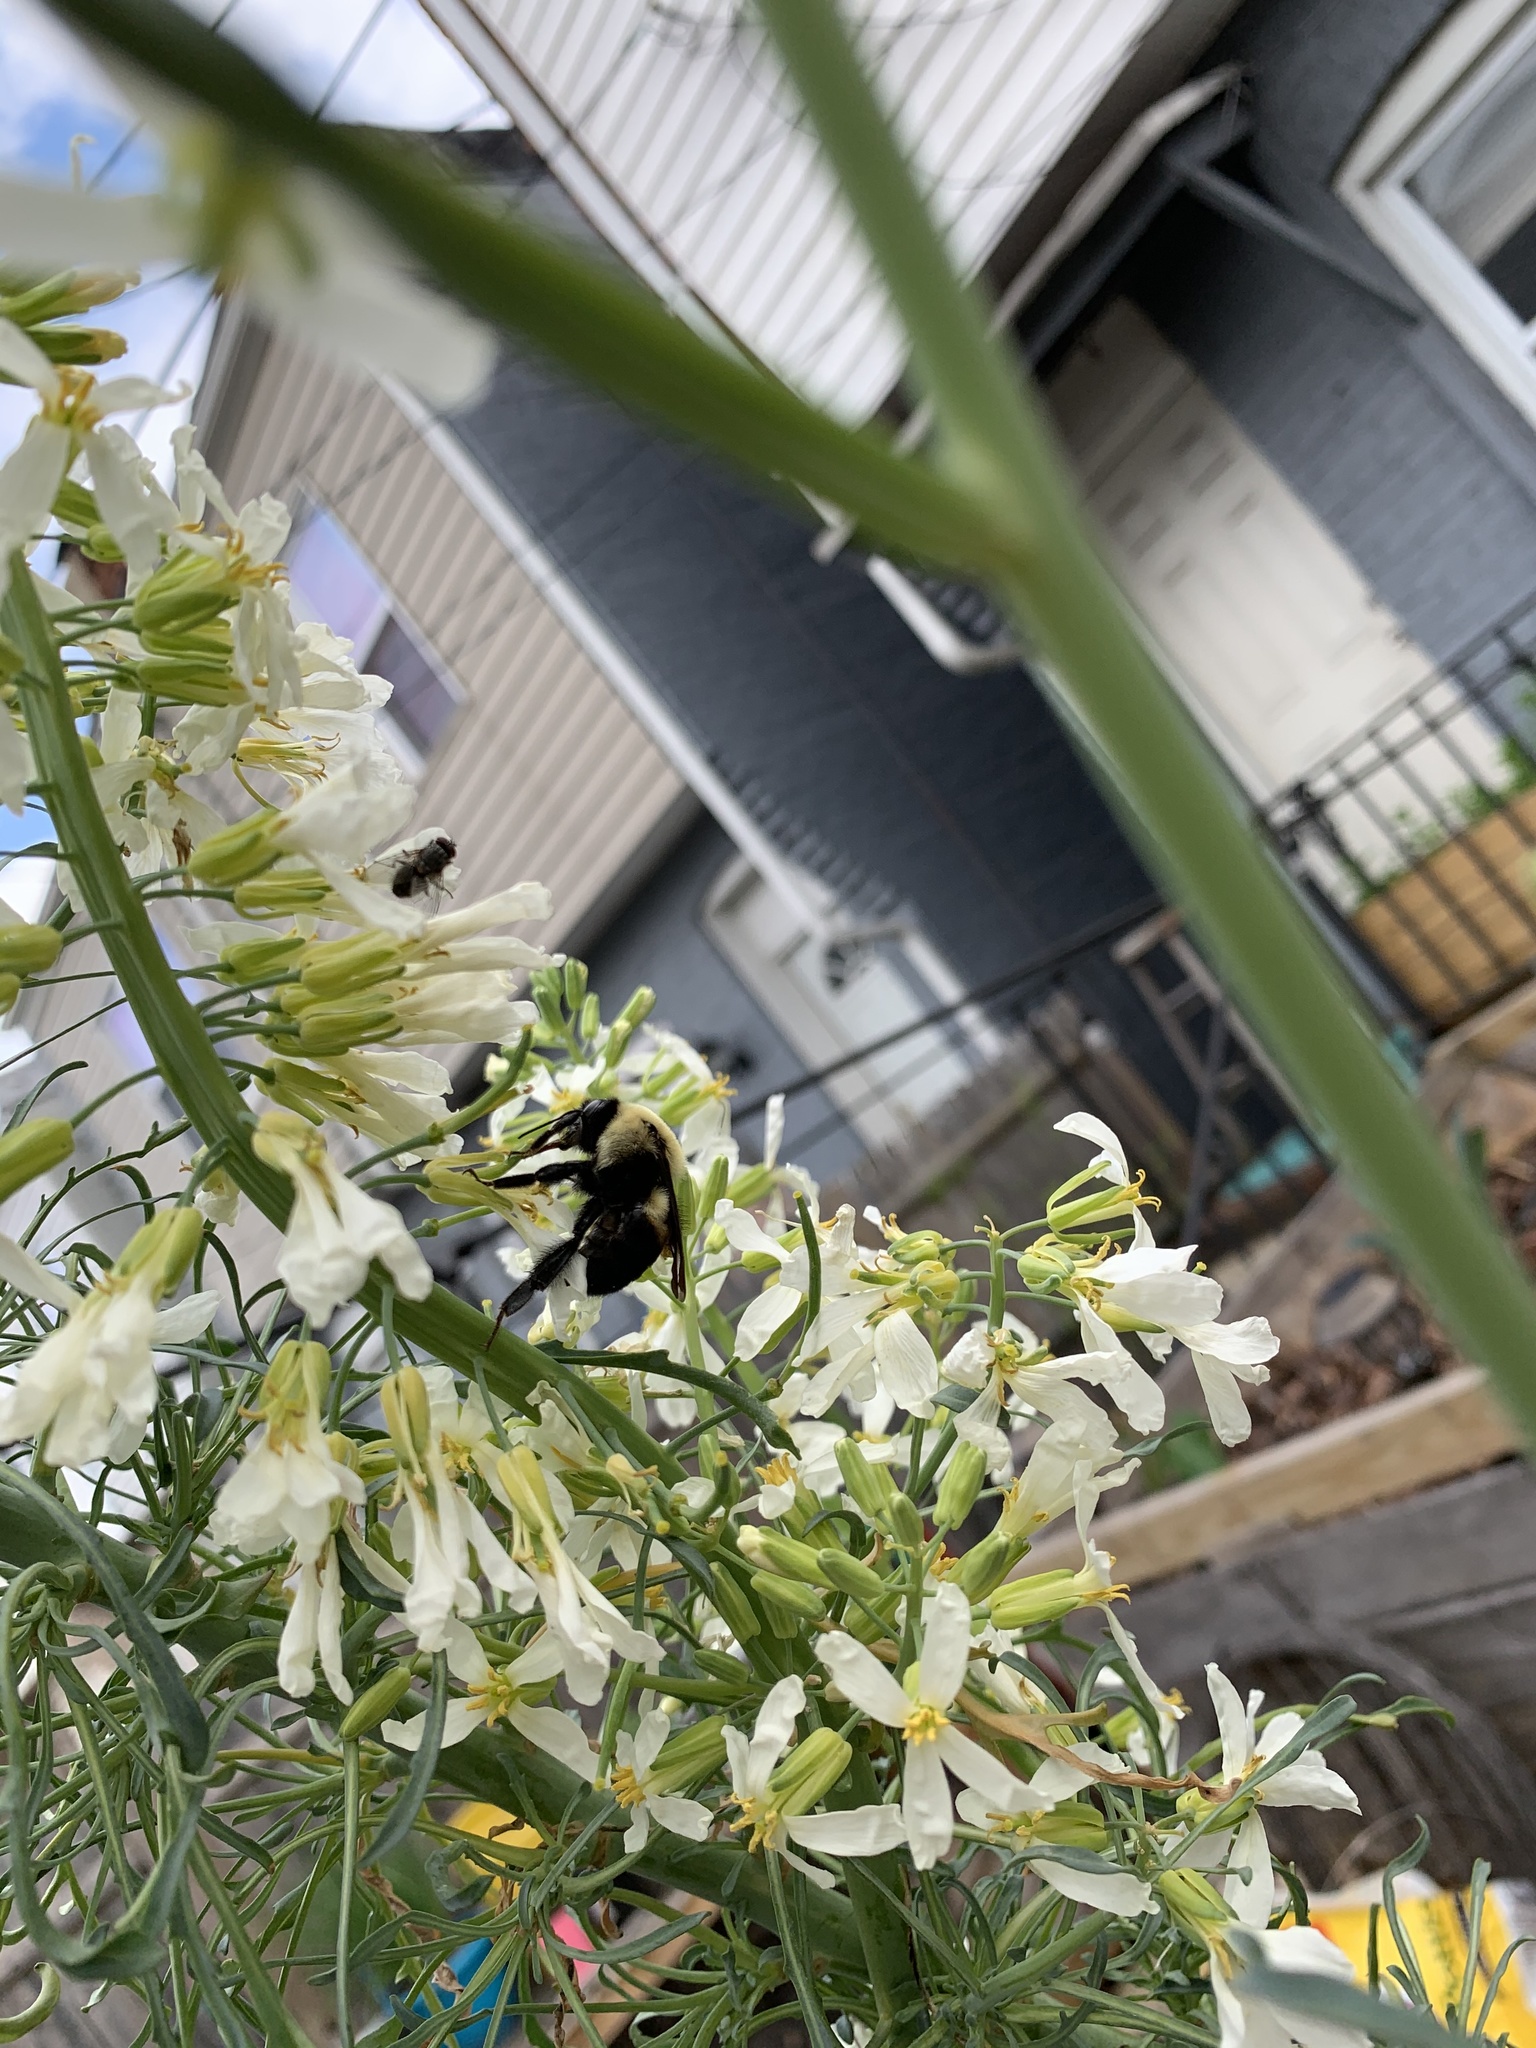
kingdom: Animalia
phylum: Arthropoda
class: Insecta
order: Hymenoptera
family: Apidae
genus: Bombus
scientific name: Bombus griseocollis
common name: Brown-belted bumble bee
